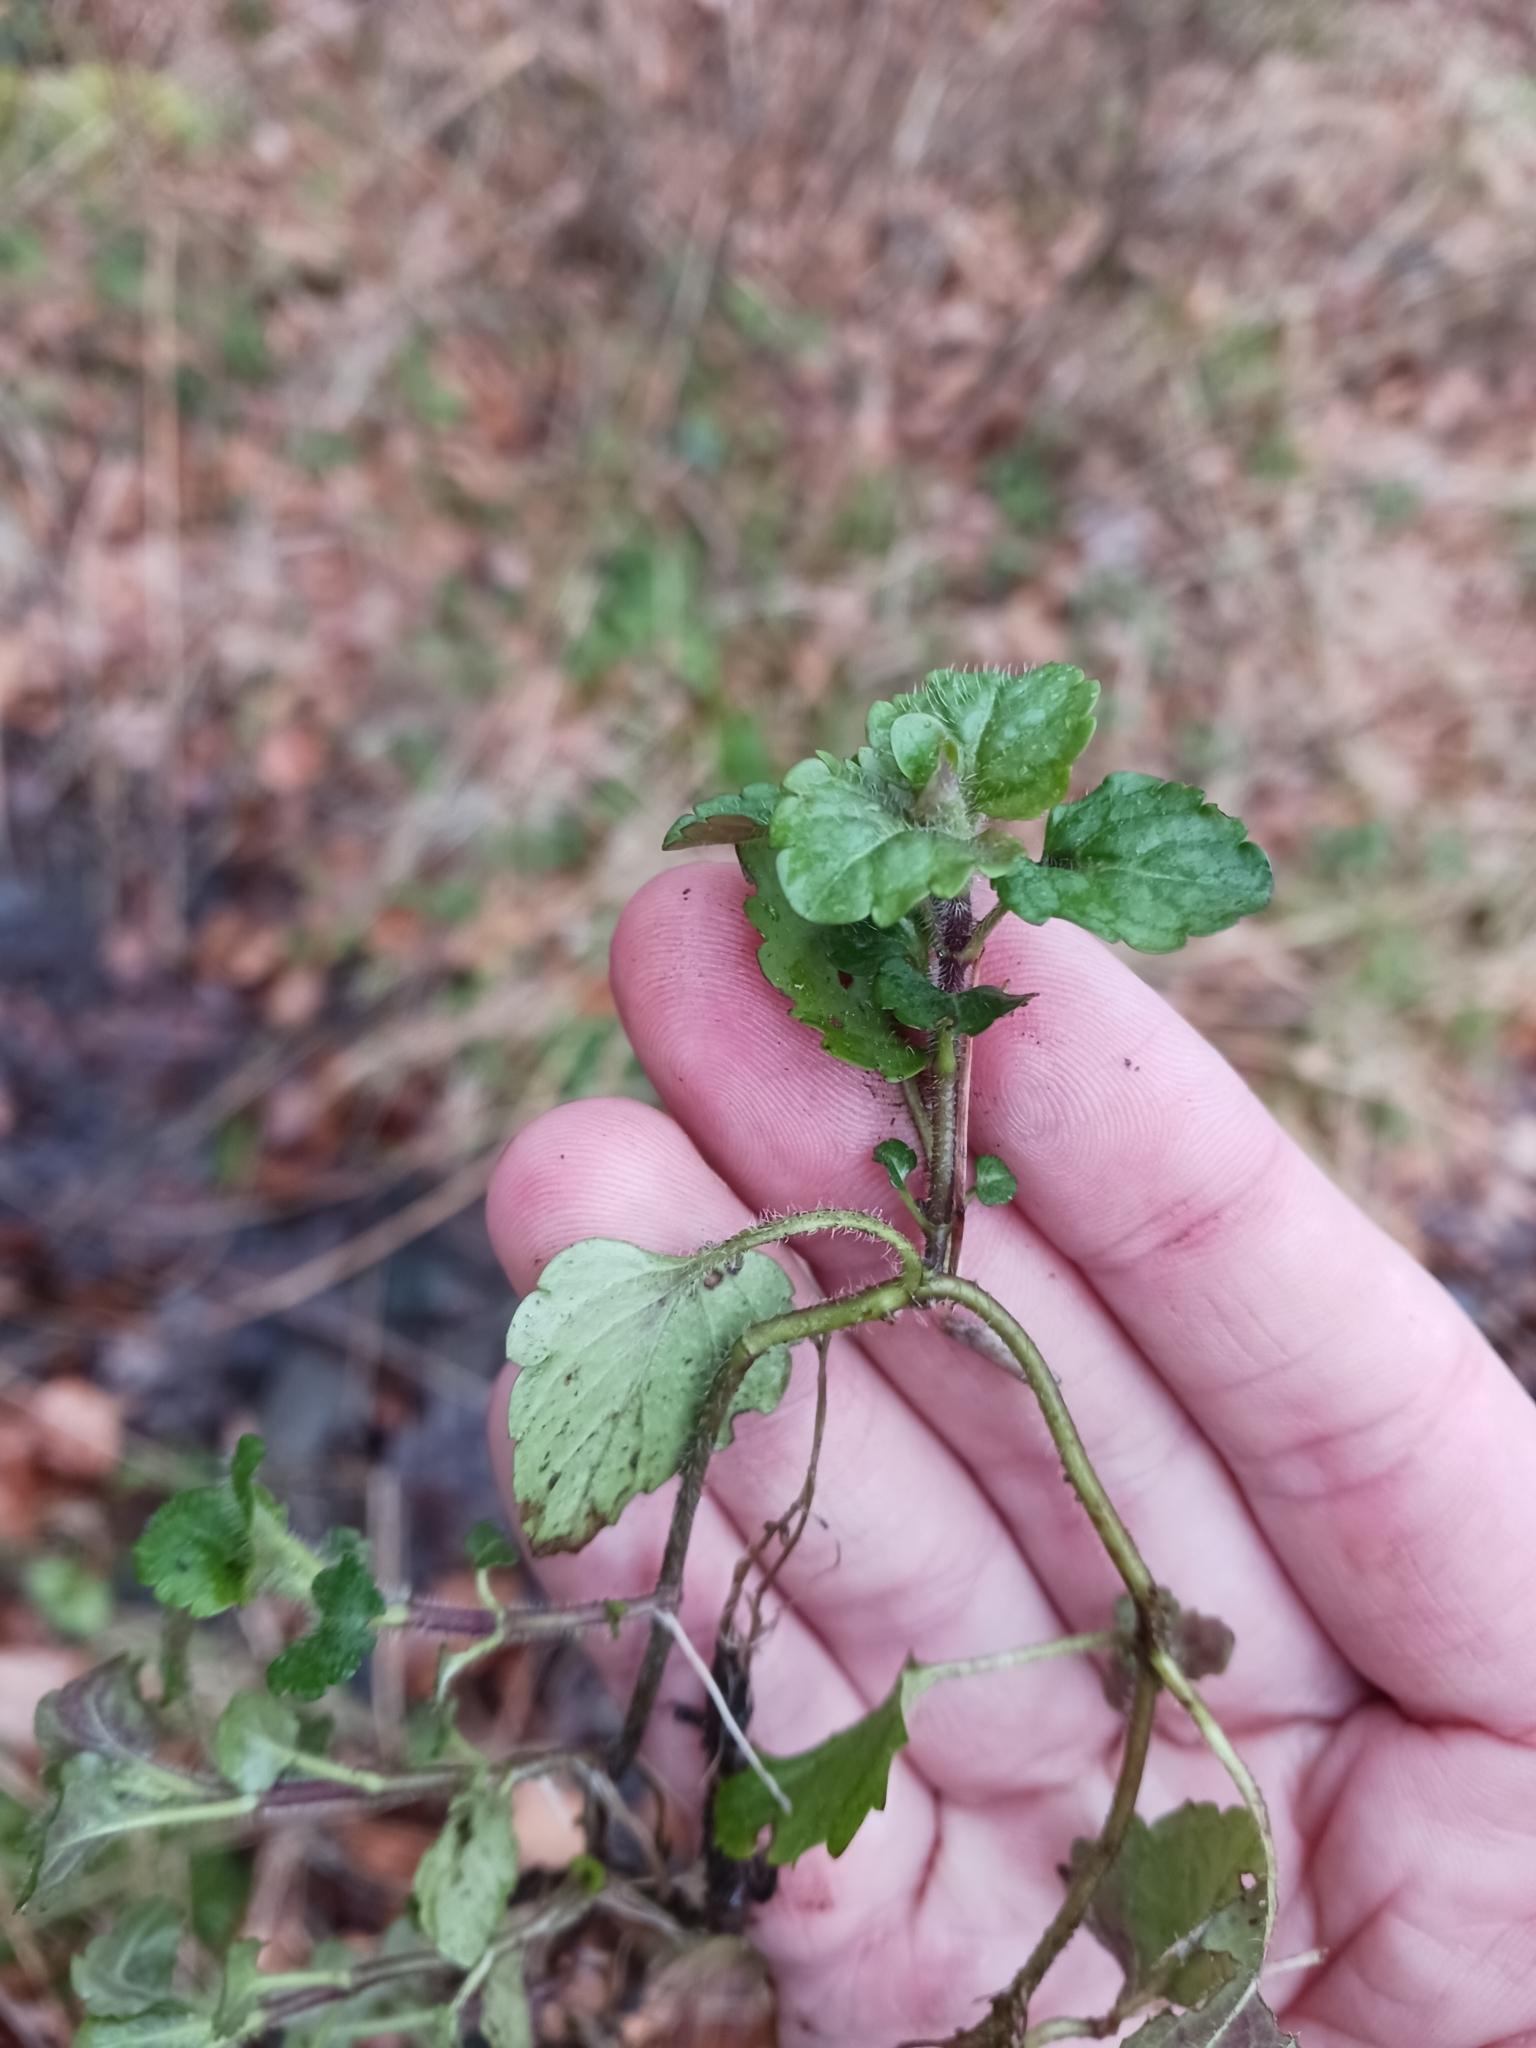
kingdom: Plantae
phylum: Tracheophyta
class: Magnoliopsida
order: Lamiales
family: Plantaginaceae
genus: Veronica
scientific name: Veronica montana
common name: Wood speedwell
